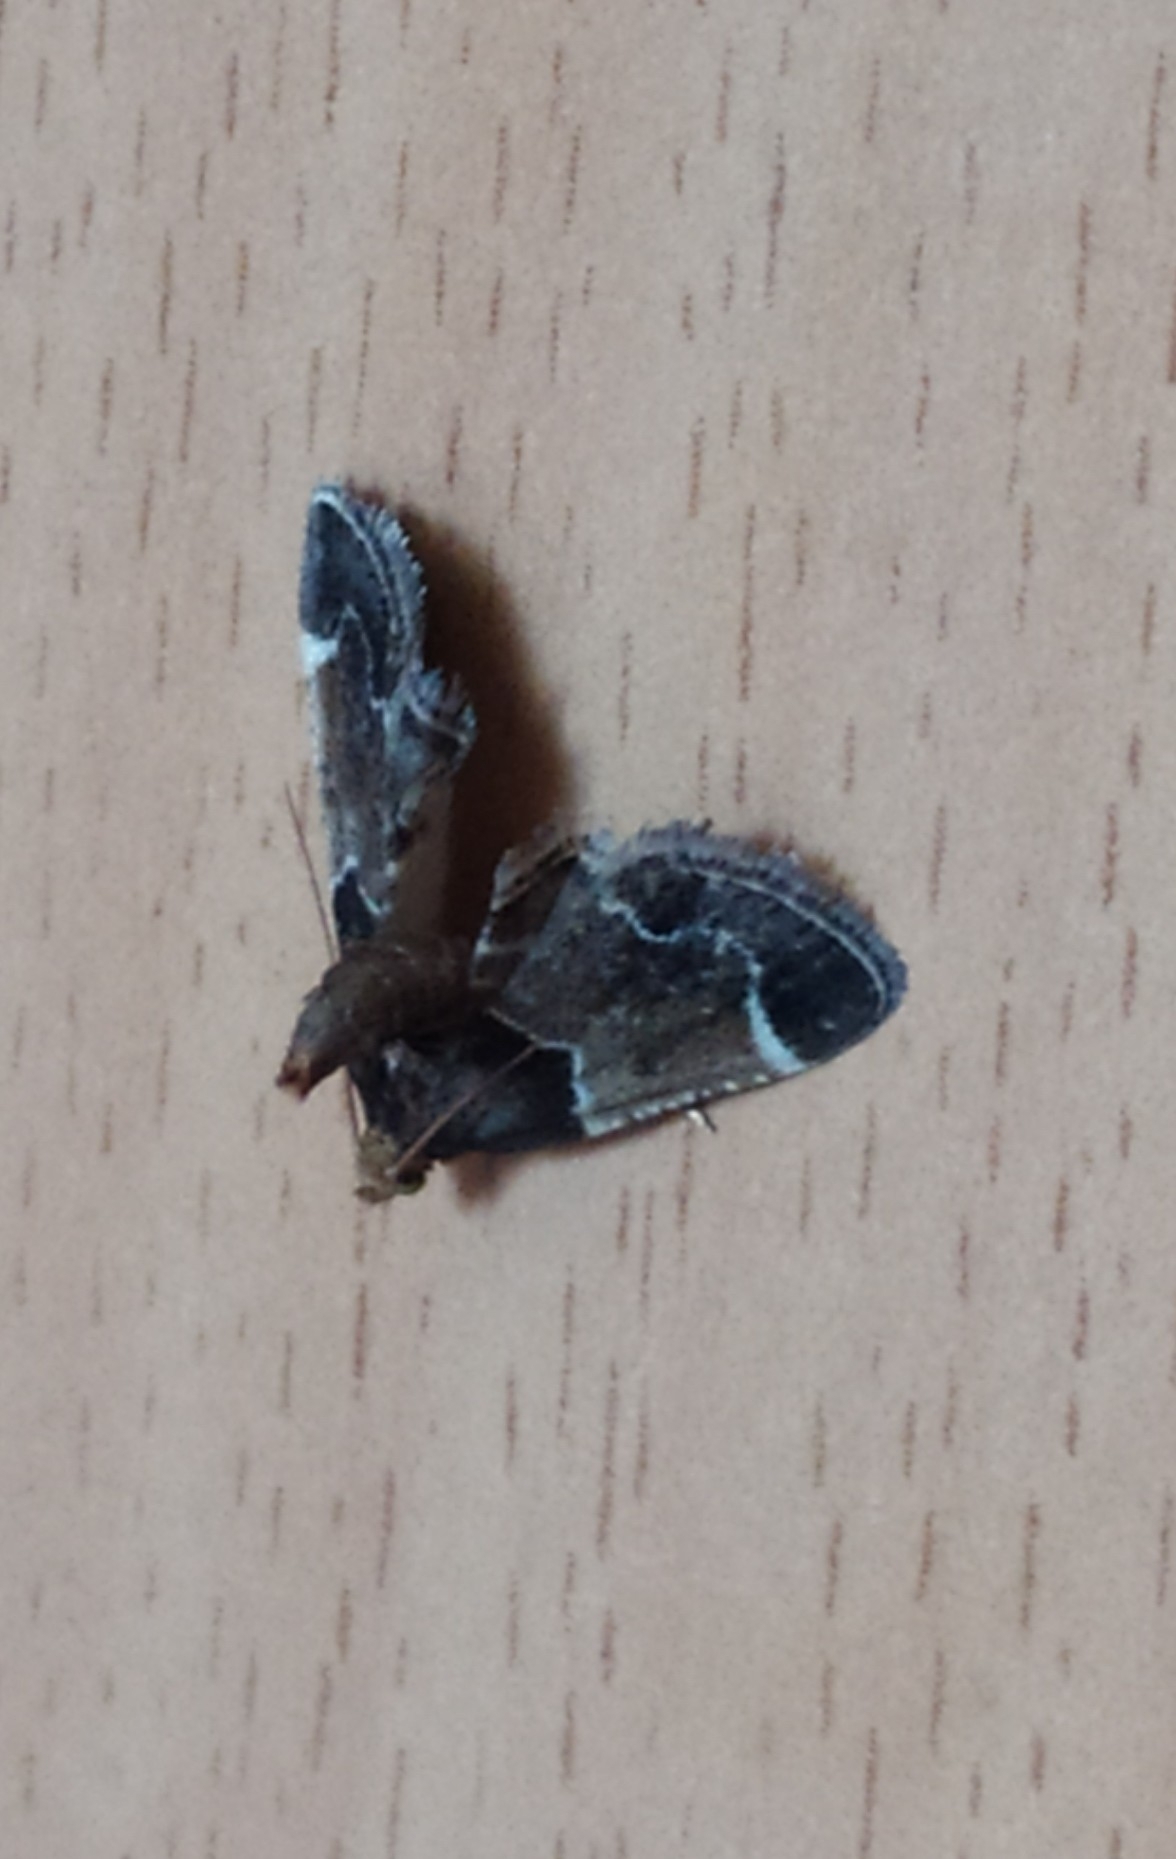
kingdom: Animalia
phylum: Arthropoda
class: Insecta
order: Lepidoptera
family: Pyralidae
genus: Pyralis
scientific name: Pyralis farinalis
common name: Meal moth
